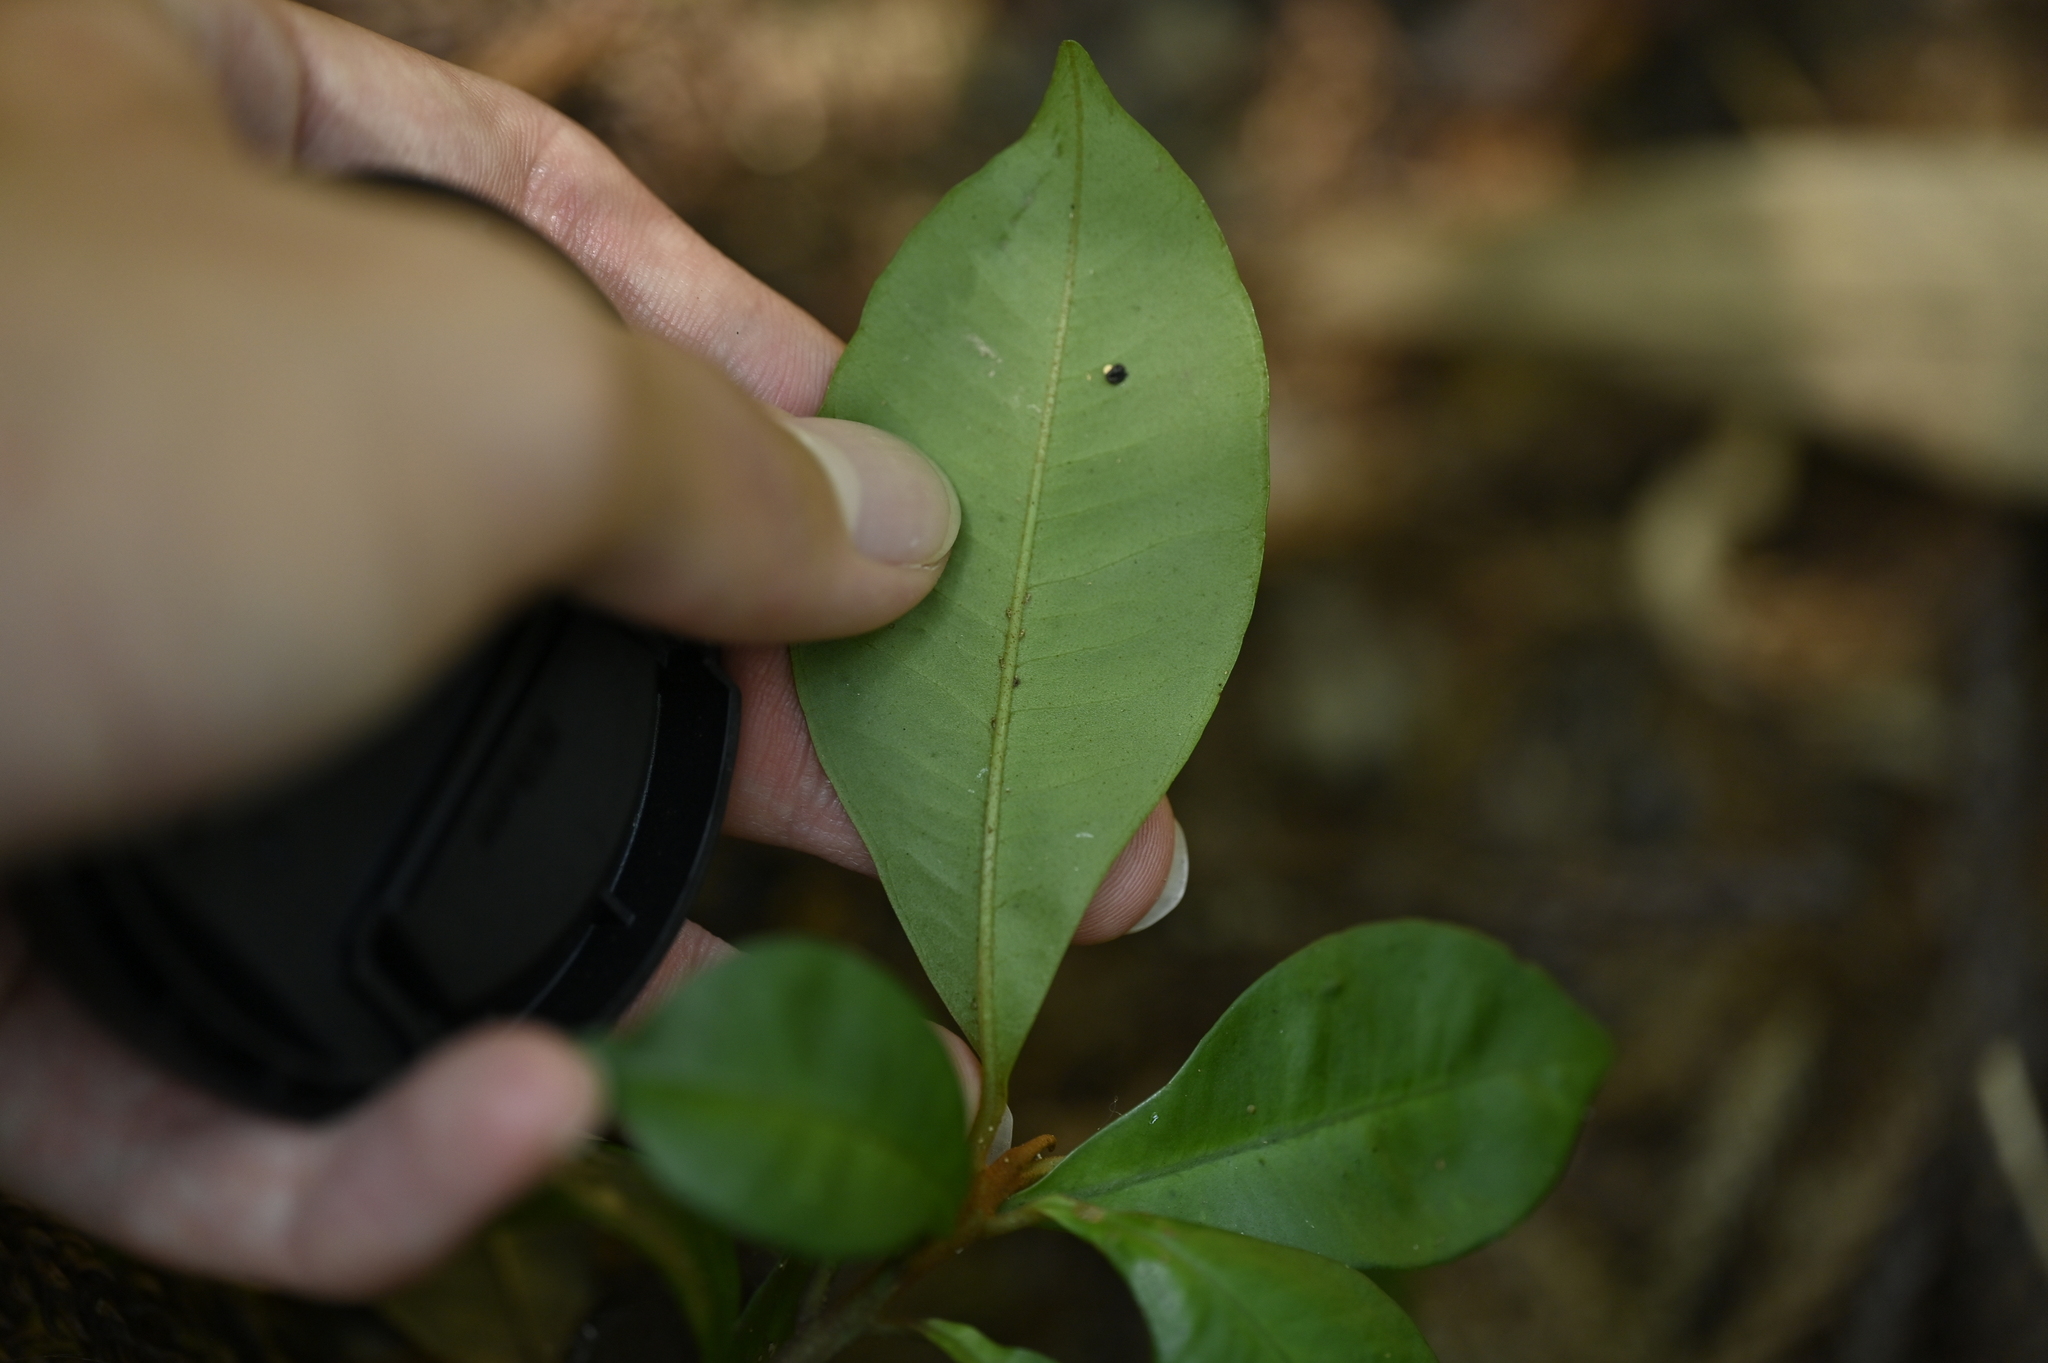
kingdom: Plantae
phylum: Tracheophyta
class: Magnoliopsida
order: Ericales
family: Primulaceae
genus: Ardisia
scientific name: Ardisia cymosa
